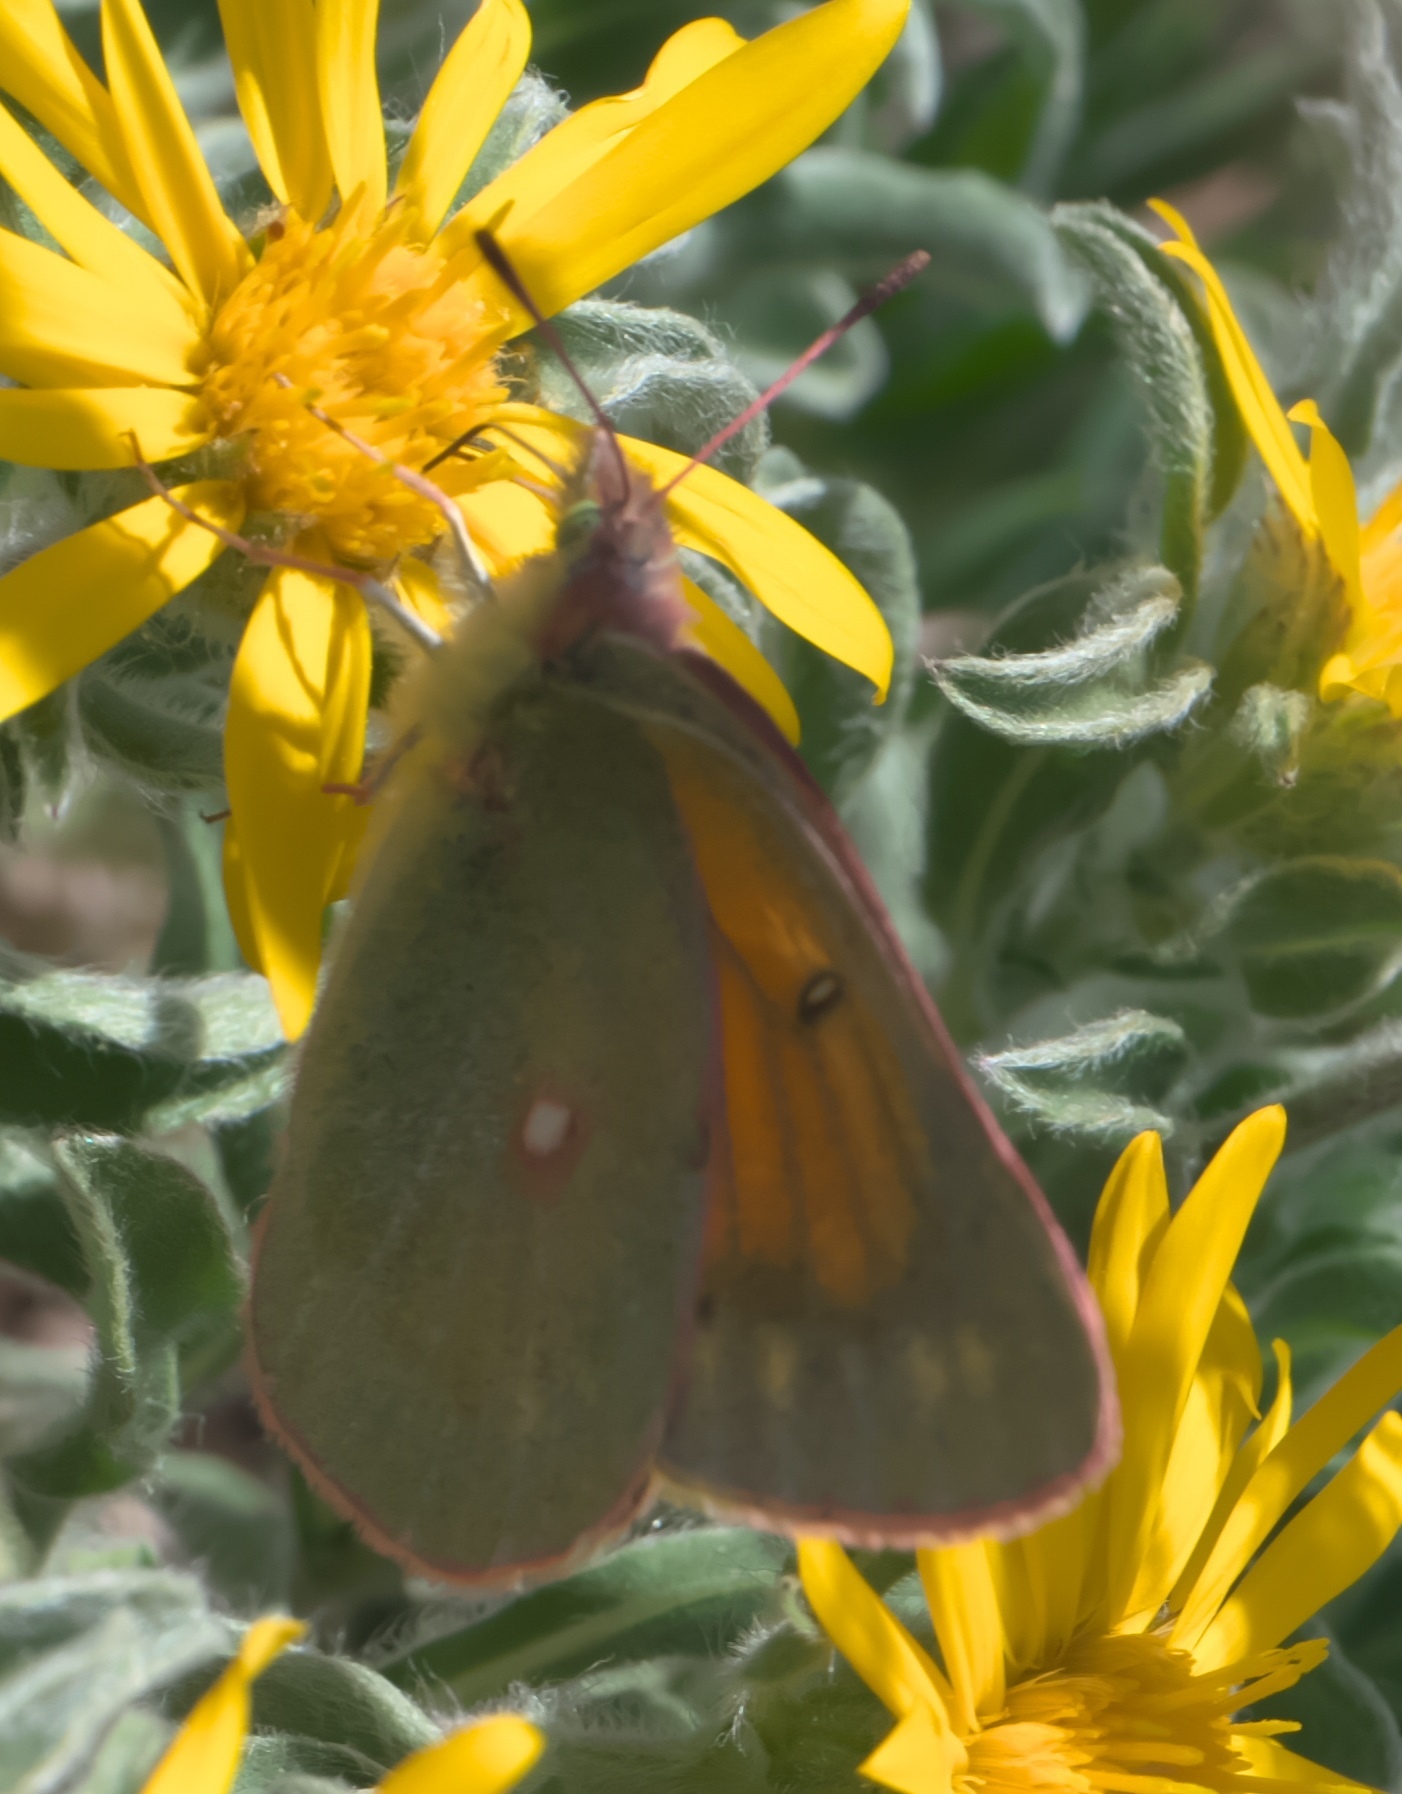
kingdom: Animalia
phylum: Arthropoda
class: Insecta
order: Lepidoptera
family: Pieridae
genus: Colias
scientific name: Colias meadii
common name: Mead's sulphur
